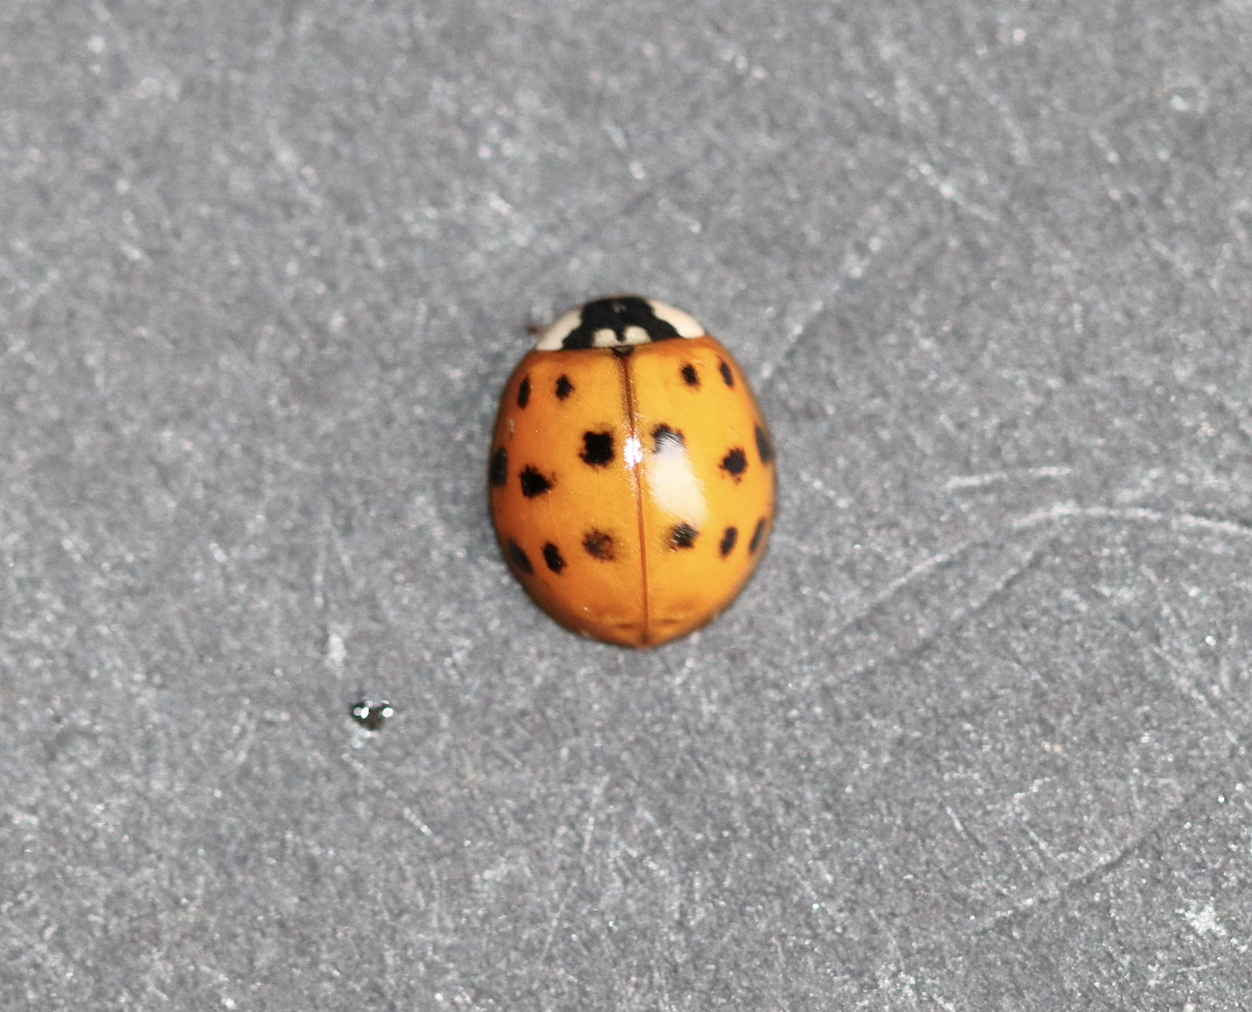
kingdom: Animalia
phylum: Arthropoda
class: Insecta
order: Coleoptera
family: Coccinellidae
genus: Harmonia
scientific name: Harmonia axyridis
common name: Harlequin ladybird
